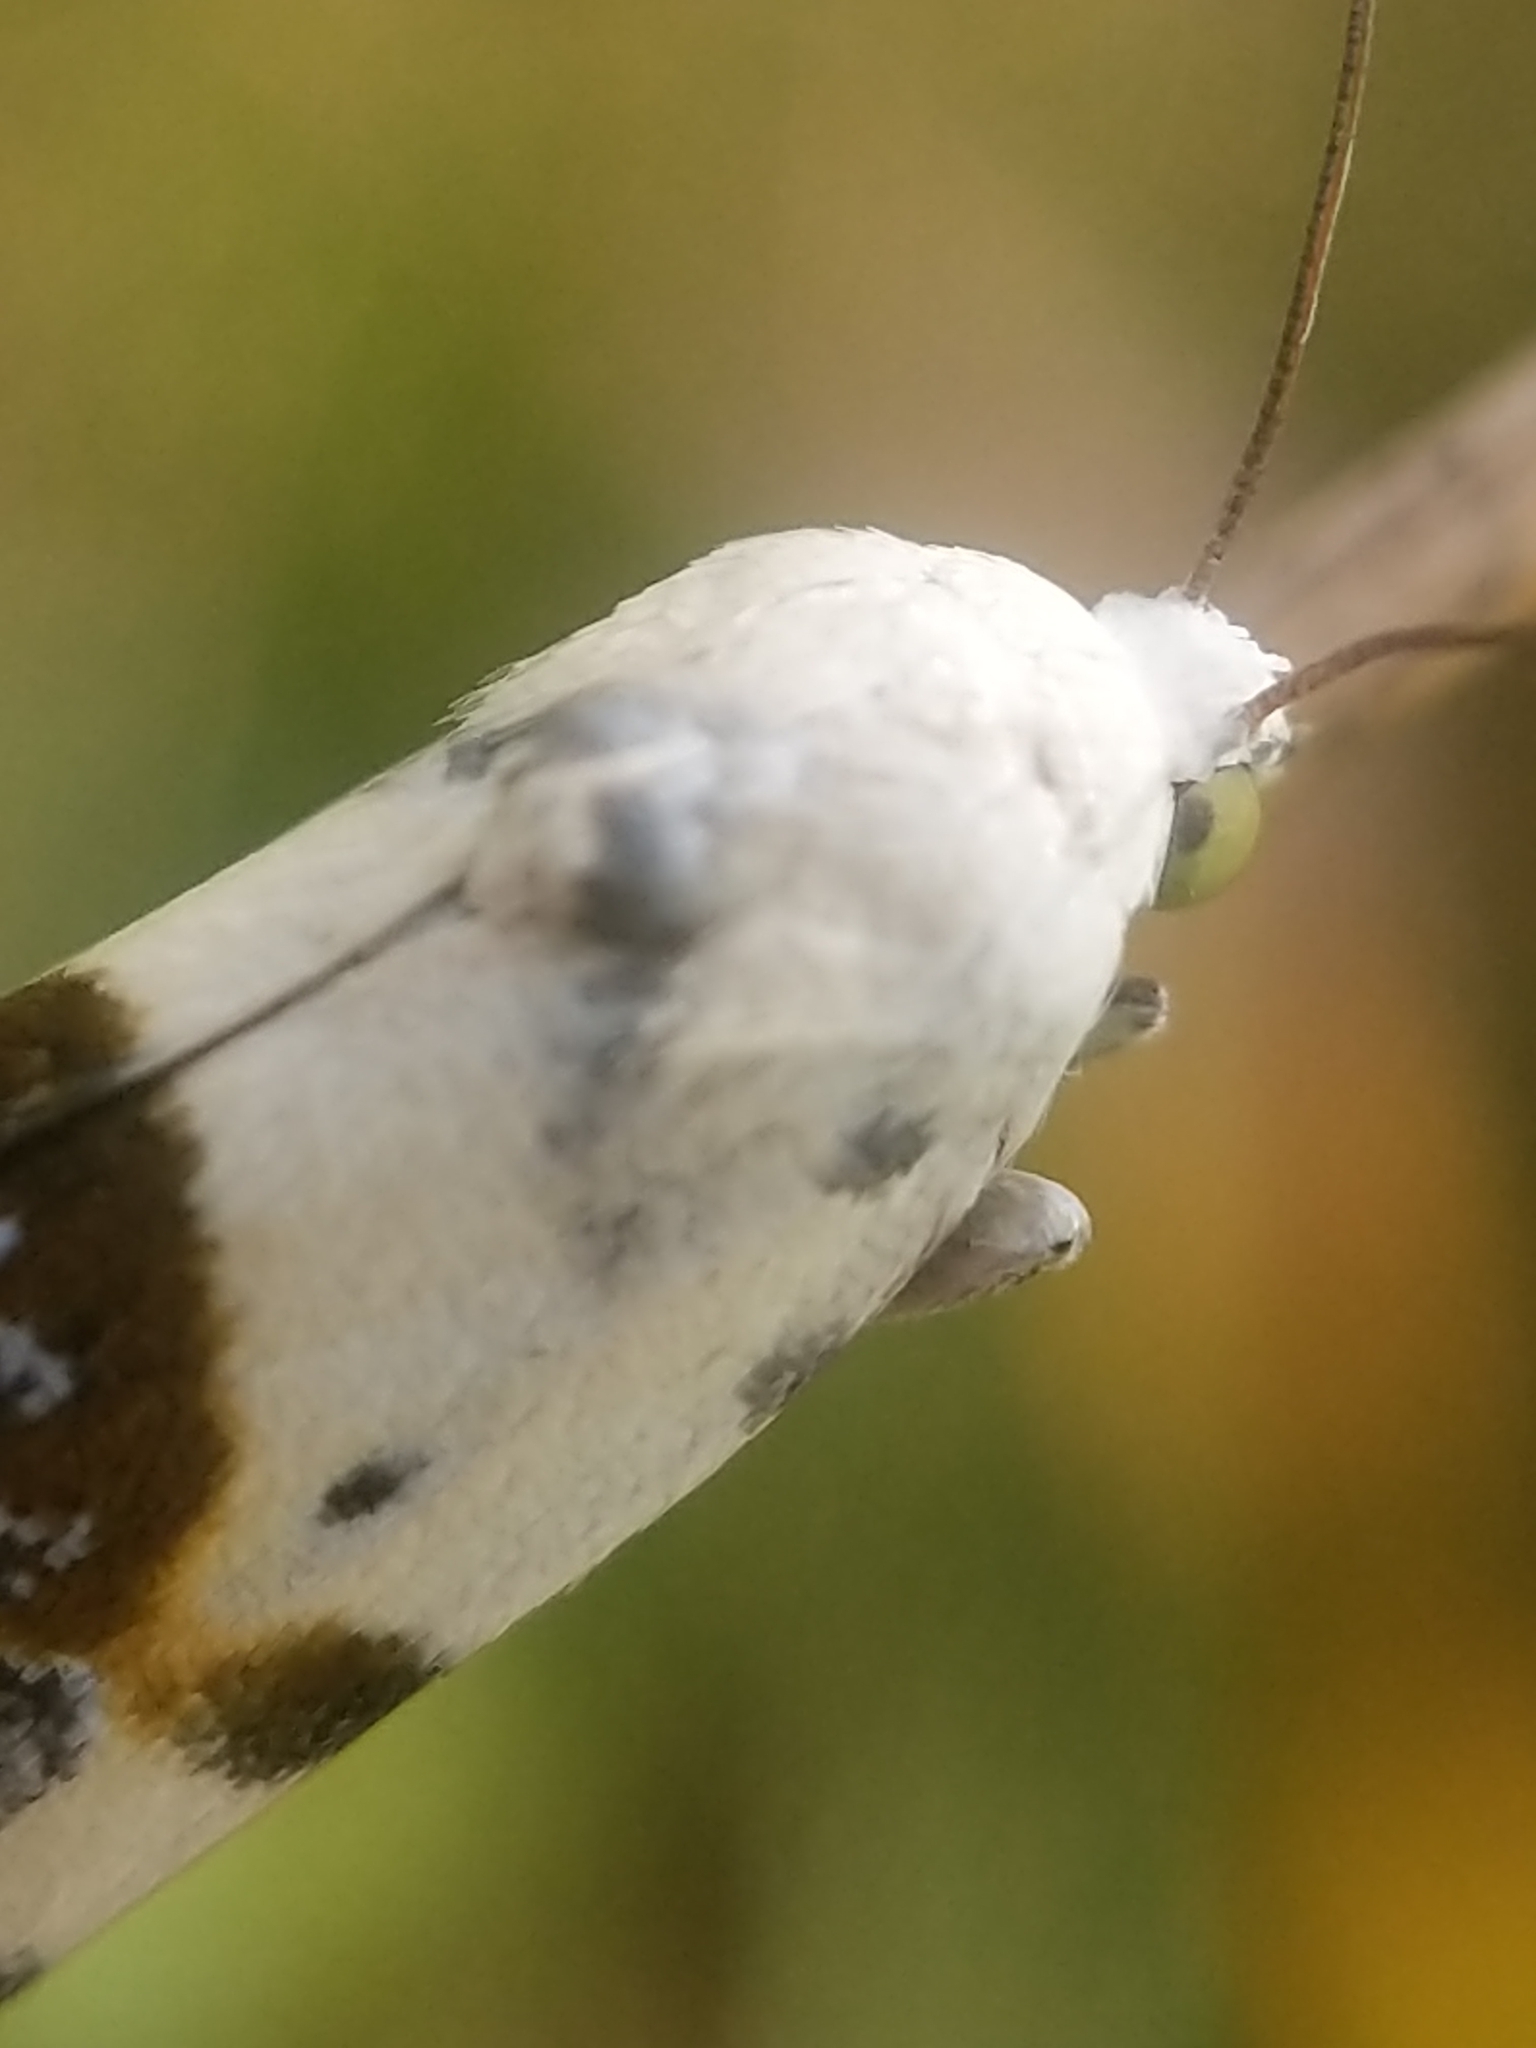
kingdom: Animalia
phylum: Arthropoda
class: Insecta
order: Lepidoptera
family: Noctuidae
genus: Acontia
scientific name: Acontia candefacta
